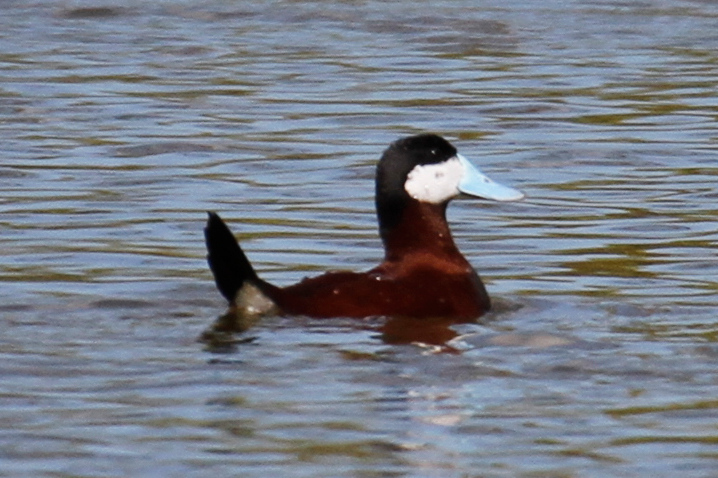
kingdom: Animalia
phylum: Chordata
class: Aves
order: Anseriformes
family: Anatidae
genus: Oxyura
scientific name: Oxyura jamaicensis
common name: Ruddy duck
